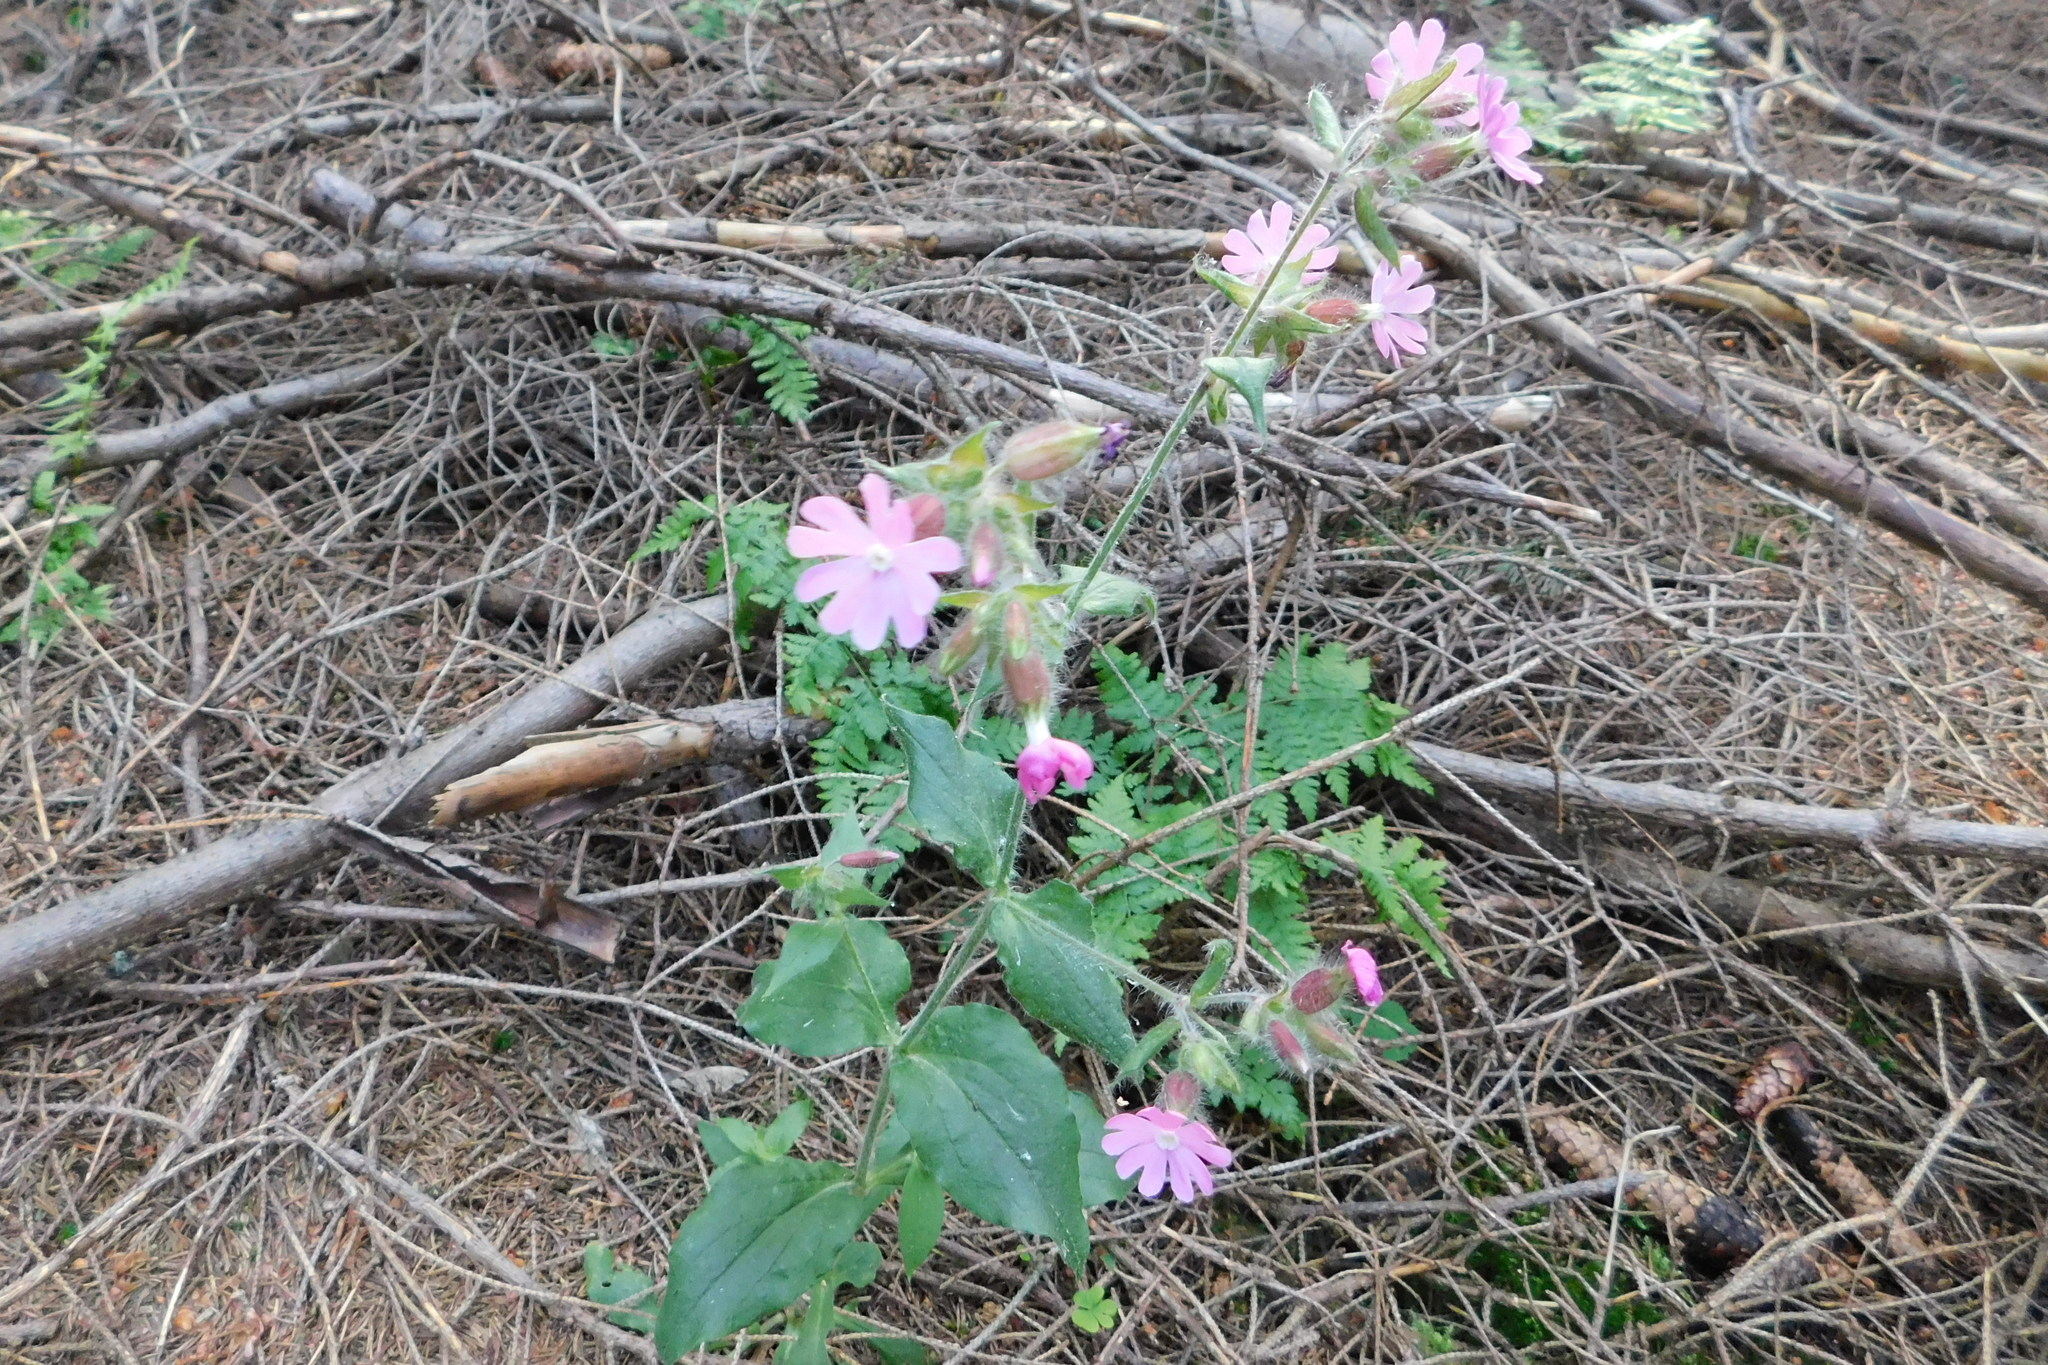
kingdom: Plantae
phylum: Tracheophyta
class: Magnoliopsida
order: Caryophyllales
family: Caryophyllaceae
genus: Silene
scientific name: Silene dioica
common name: Red campion
